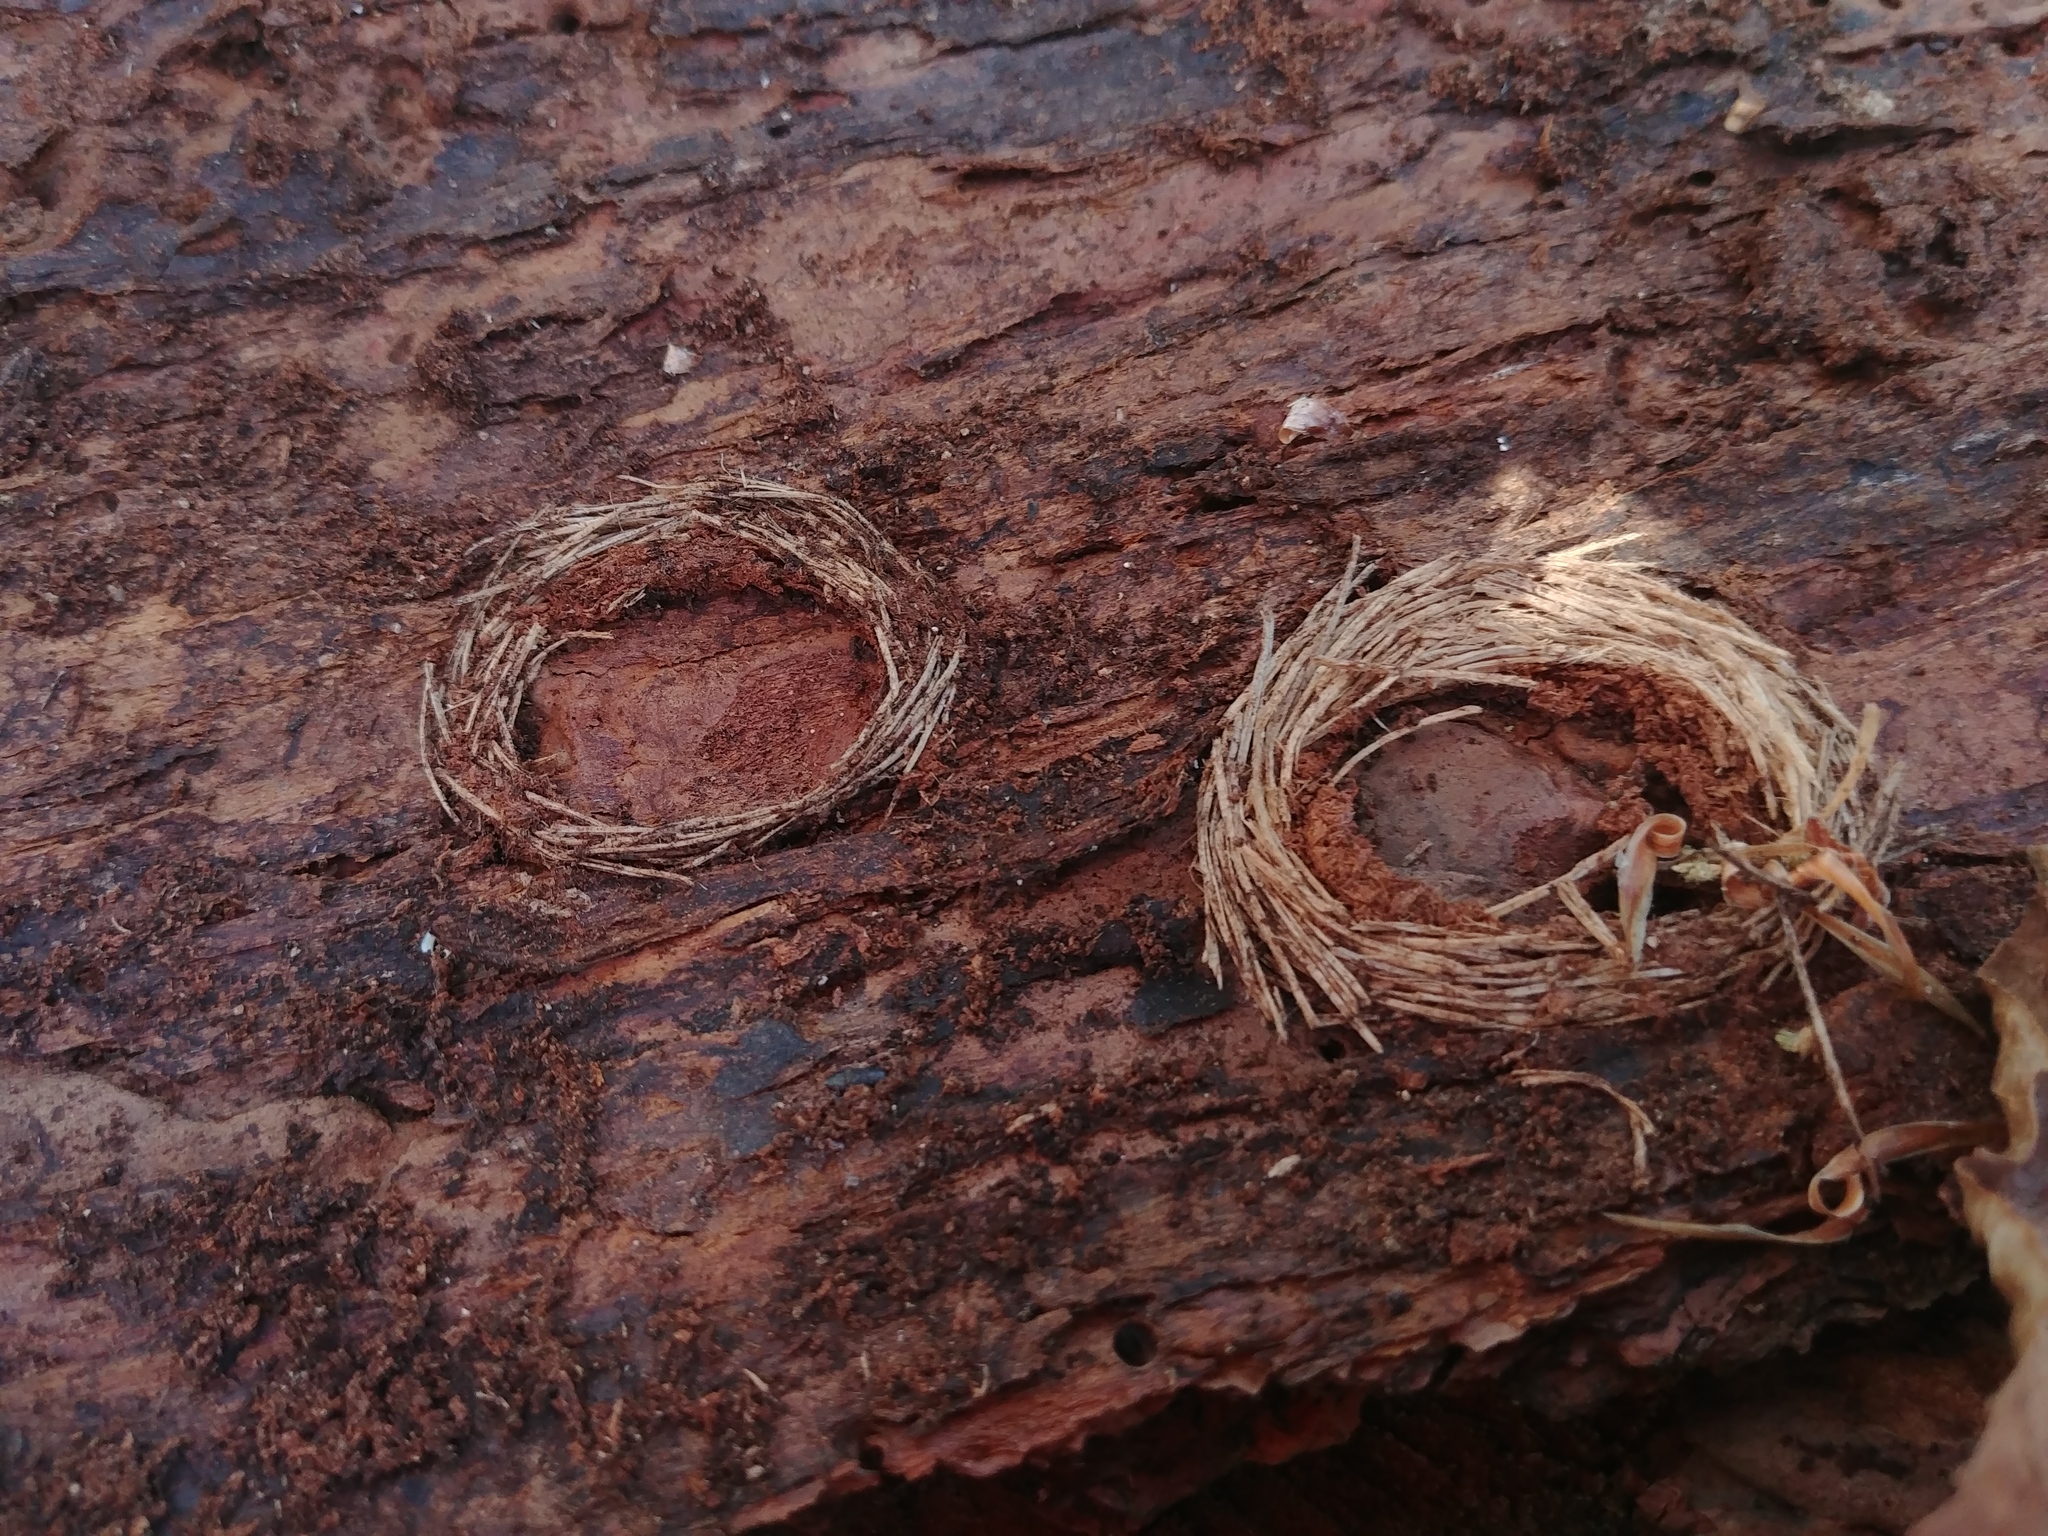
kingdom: Animalia
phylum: Arthropoda
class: Insecta
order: Coleoptera
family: Cerambycidae
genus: Rhagium
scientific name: Rhagium inquisitor
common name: Ribbed pine borer
